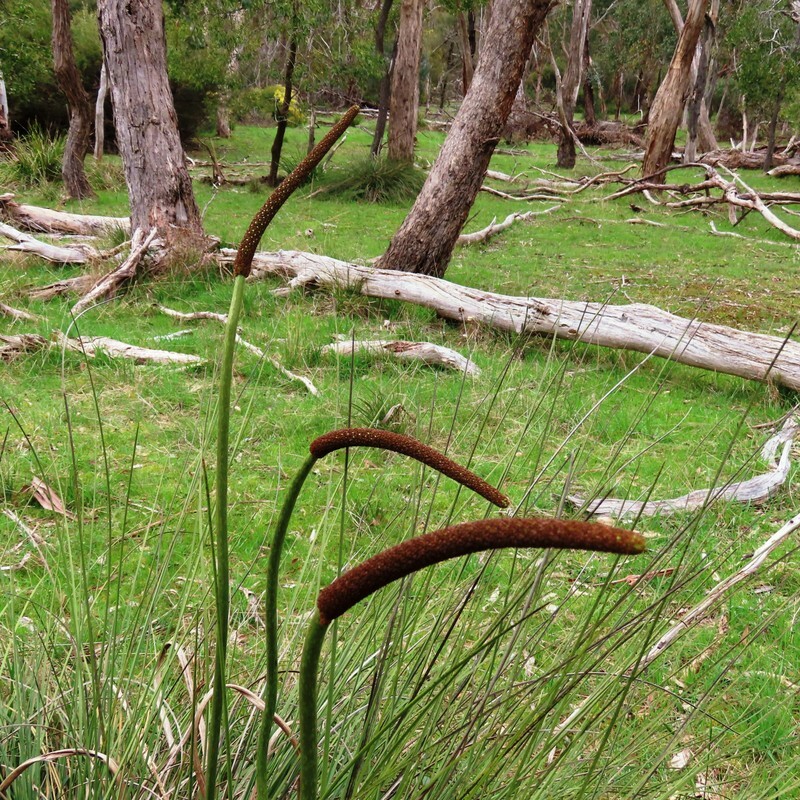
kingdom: Plantae
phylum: Tracheophyta
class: Liliopsida
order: Asparagales
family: Asphodelaceae
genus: Xanthorrhoea
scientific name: Xanthorrhoea minor
